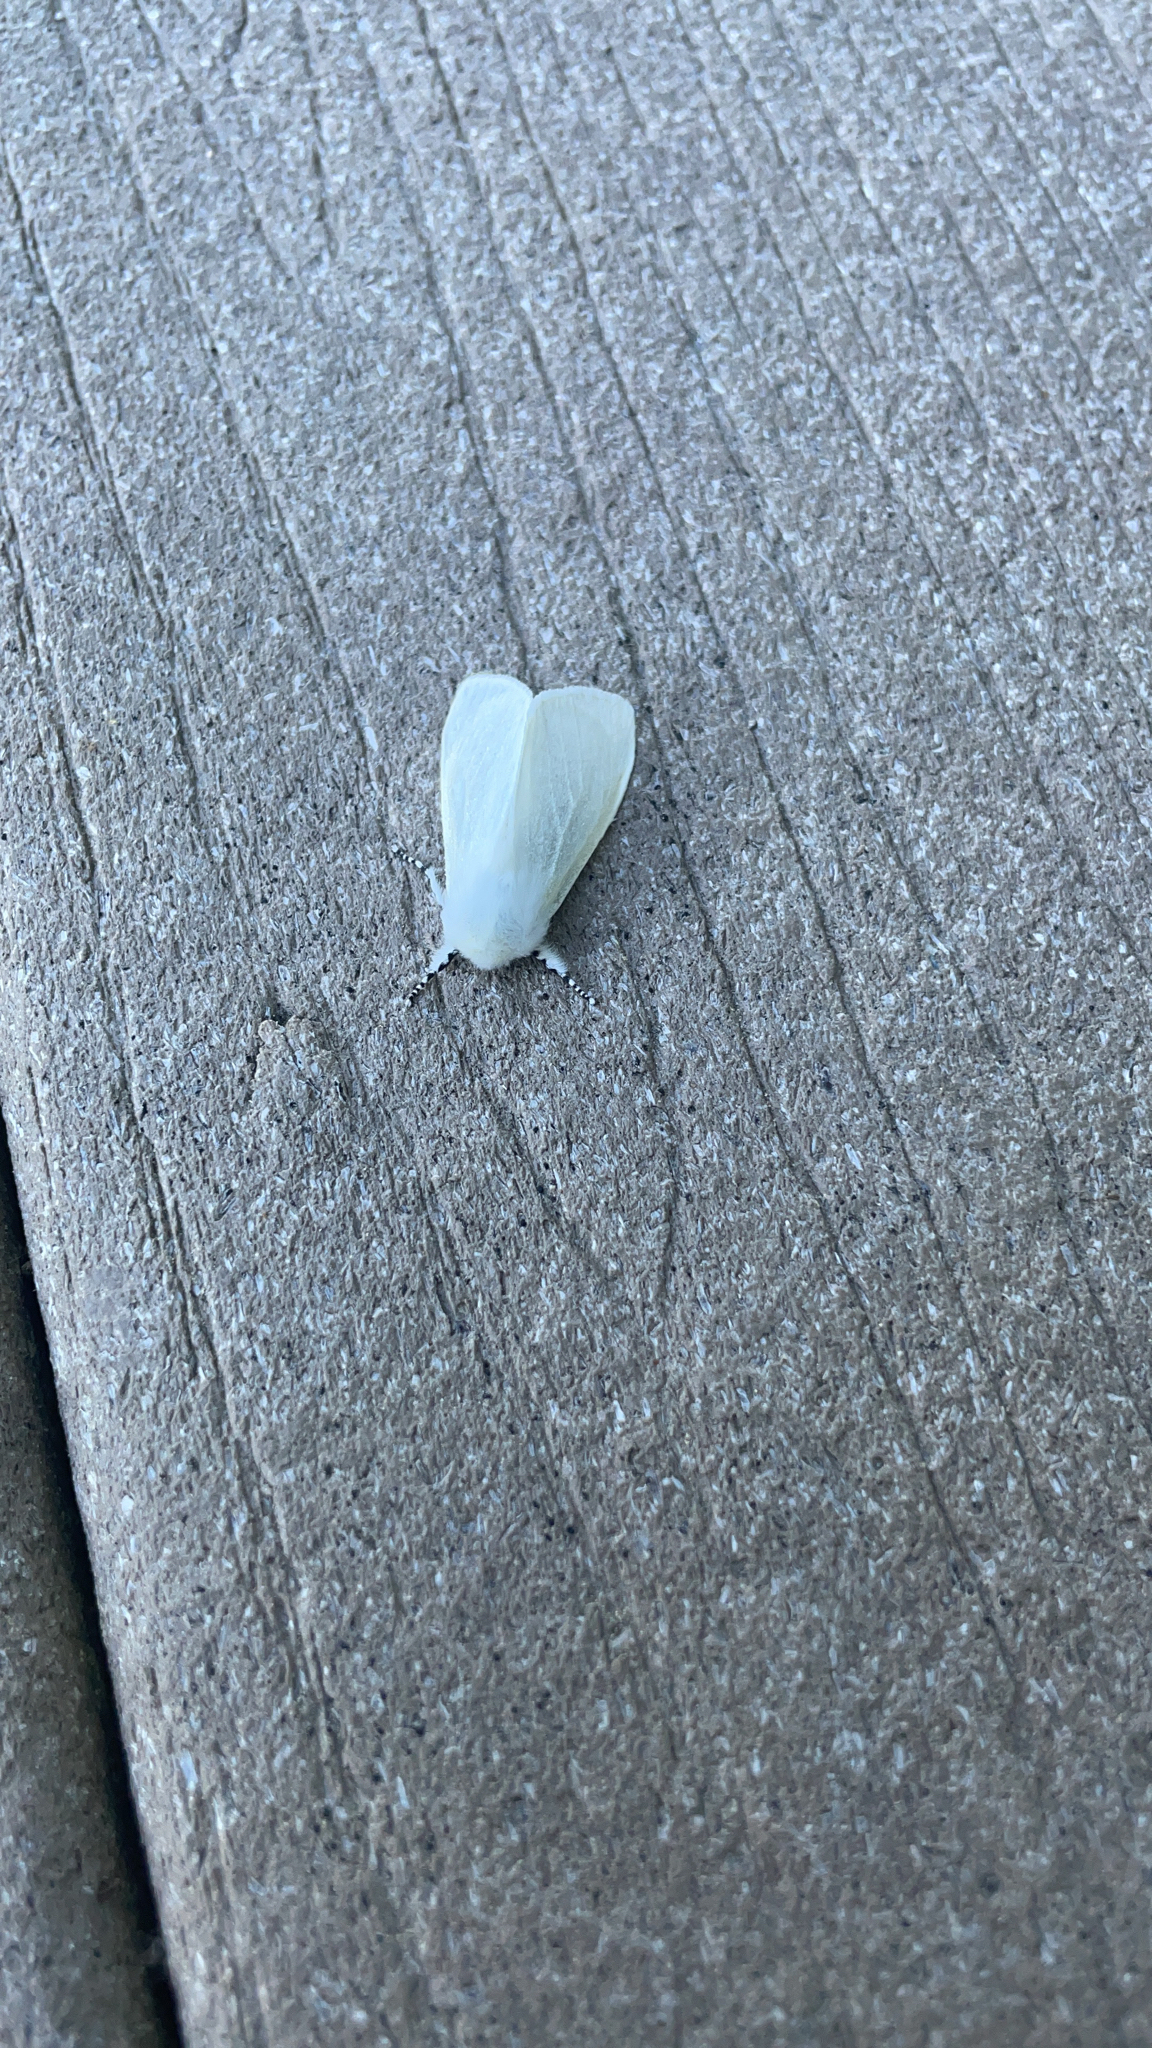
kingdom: Animalia
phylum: Arthropoda
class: Insecta
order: Lepidoptera
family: Erebidae
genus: Leucoma
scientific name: Leucoma salicis
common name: White satin moth
